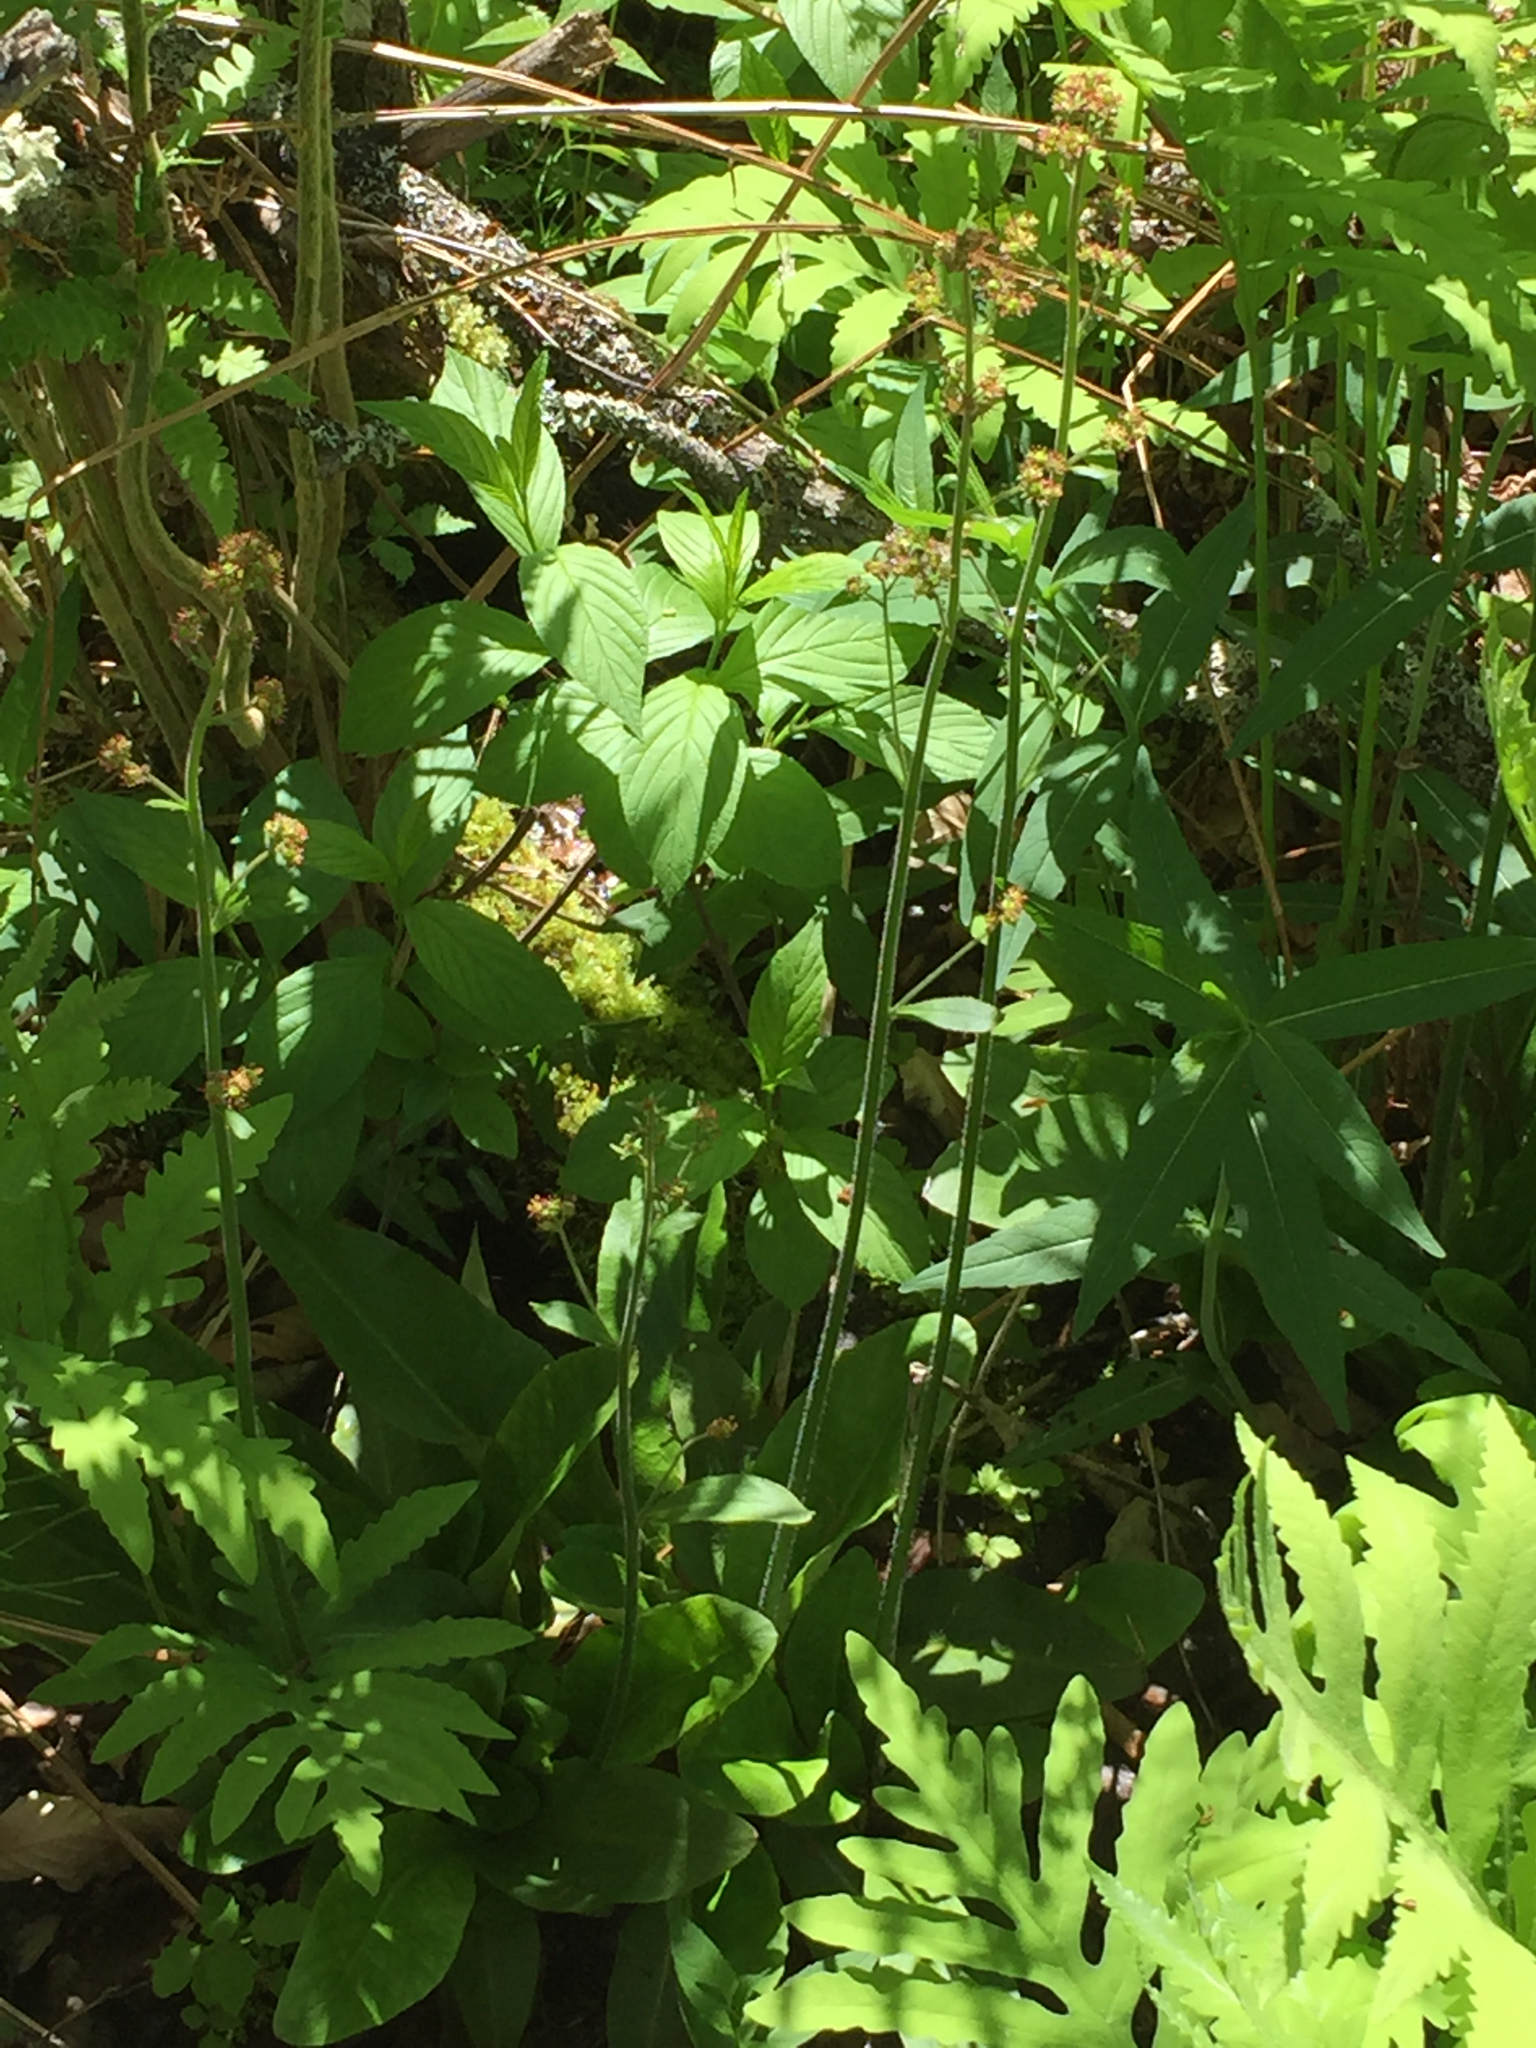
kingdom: Plantae
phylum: Tracheophyta
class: Magnoliopsida
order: Saxifragales
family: Saxifragaceae
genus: Micranthes
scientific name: Micranthes pensylvanica
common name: Marsh saxifrage
